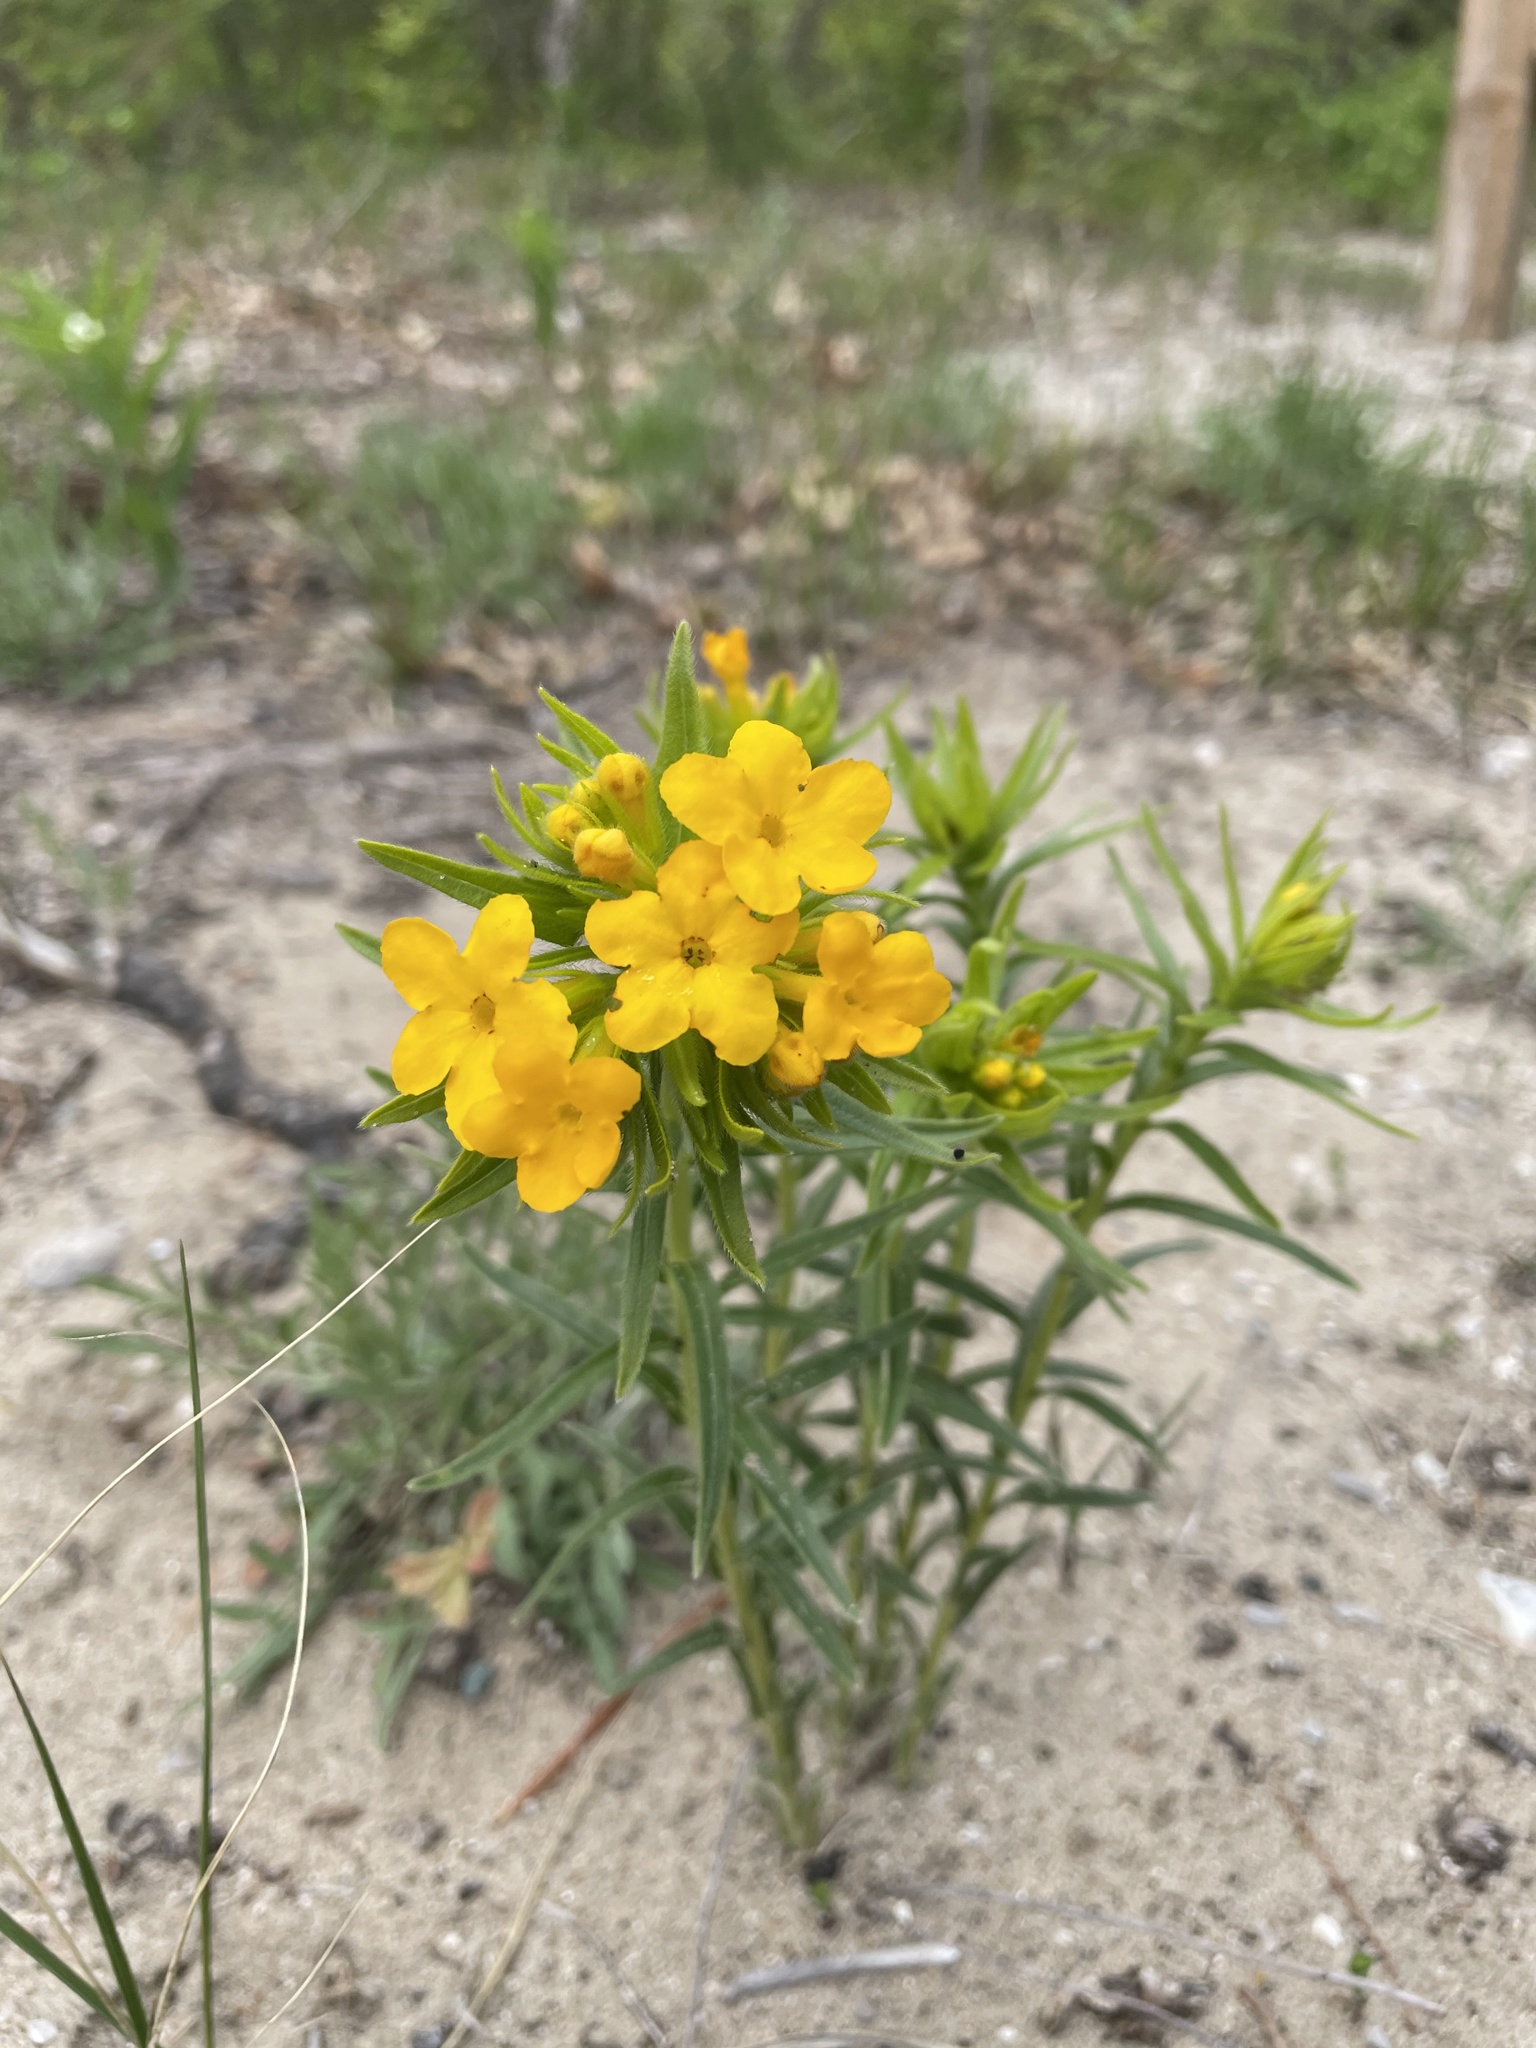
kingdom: Plantae
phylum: Tracheophyta
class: Magnoliopsida
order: Boraginales
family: Boraginaceae
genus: Lithospermum
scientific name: Lithospermum caroliniense
